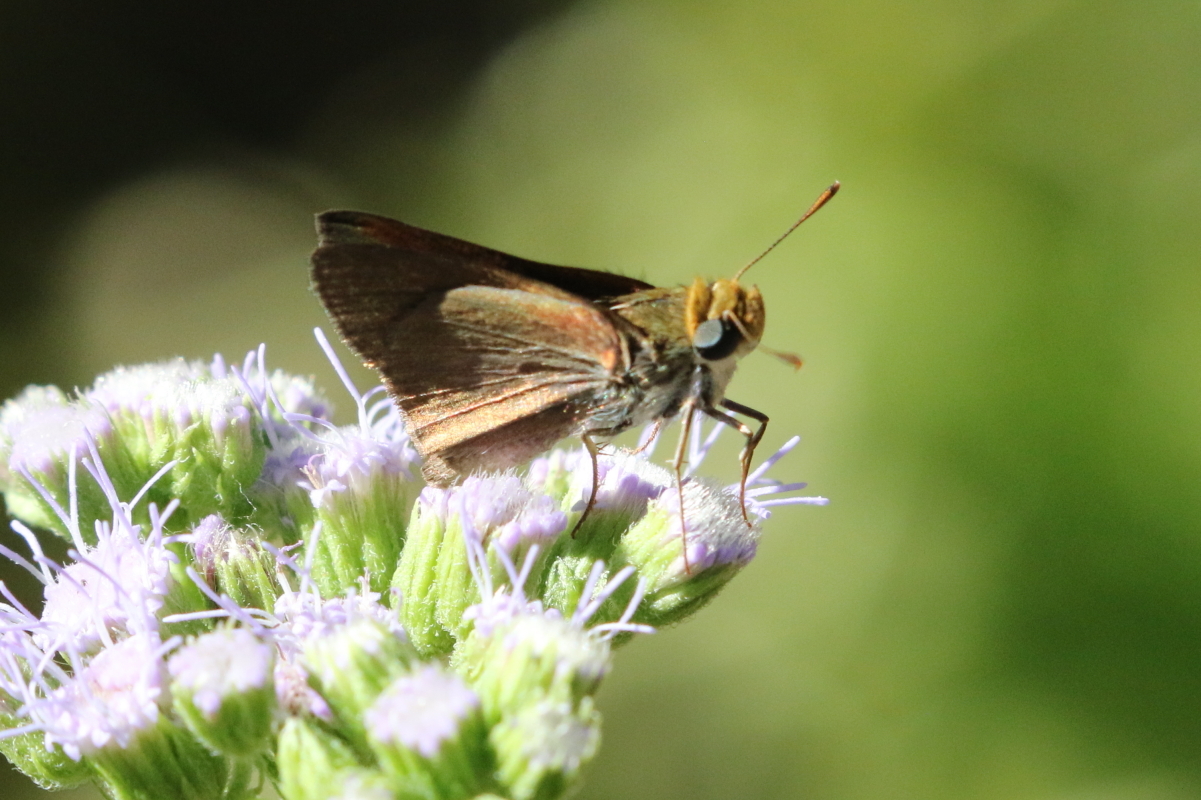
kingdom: Animalia
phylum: Arthropoda
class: Insecta
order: Lepidoptera
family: Hesperiidae
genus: Euphyes
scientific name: Euphyes vestris
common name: Dun skipper
